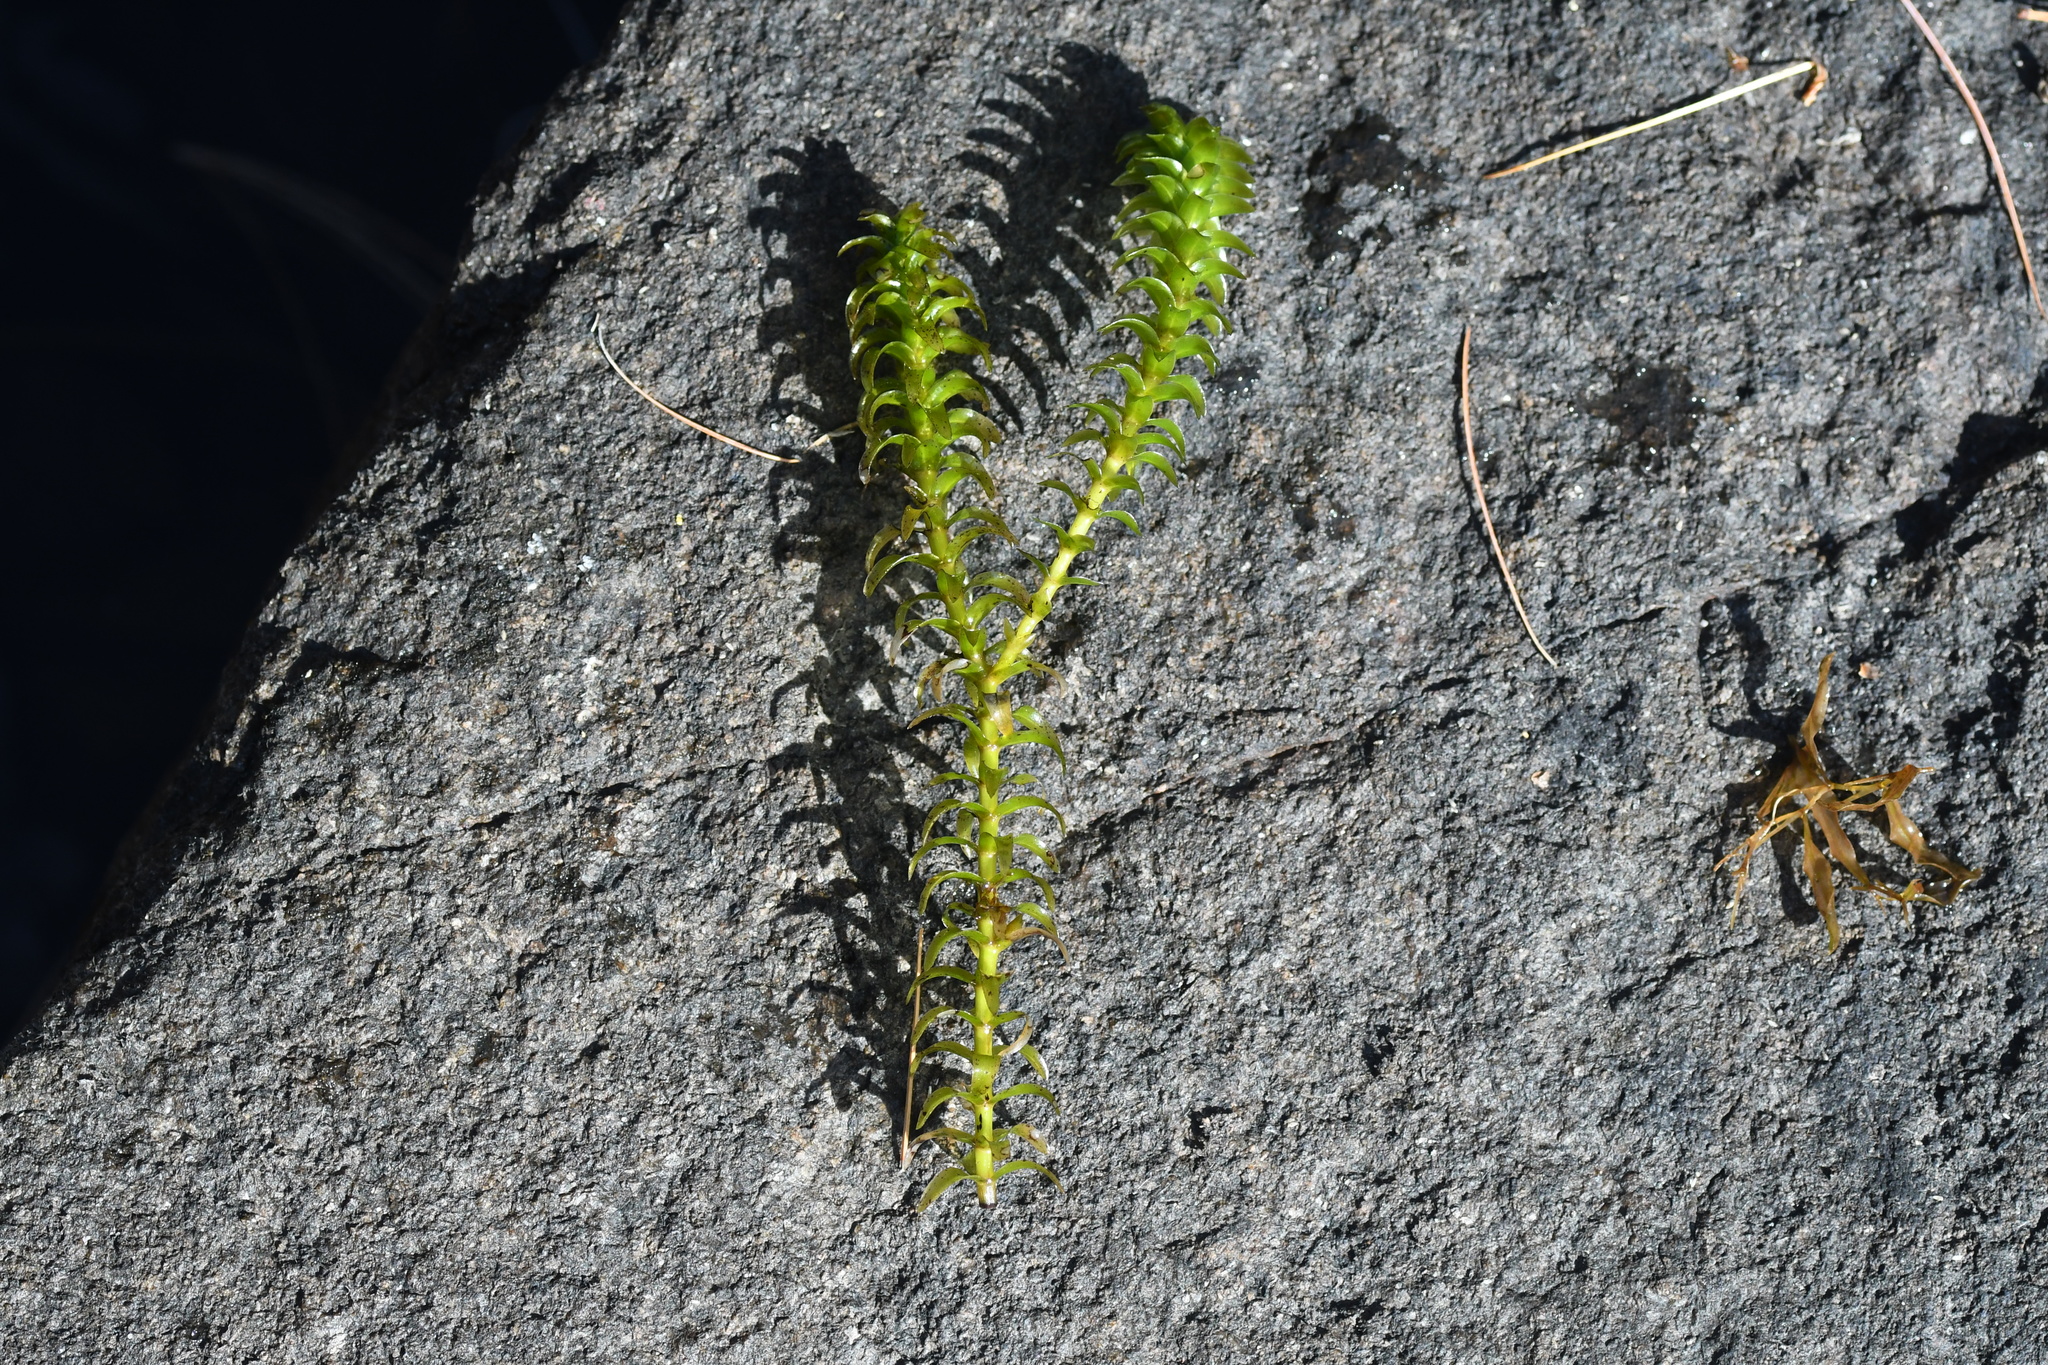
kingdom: Plantae
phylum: Tracheophyta
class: Liliopsida
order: Alismatales
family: Hydrocharitaceae
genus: Elodea
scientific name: Elodea canadensis
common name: Canadian waterweed
